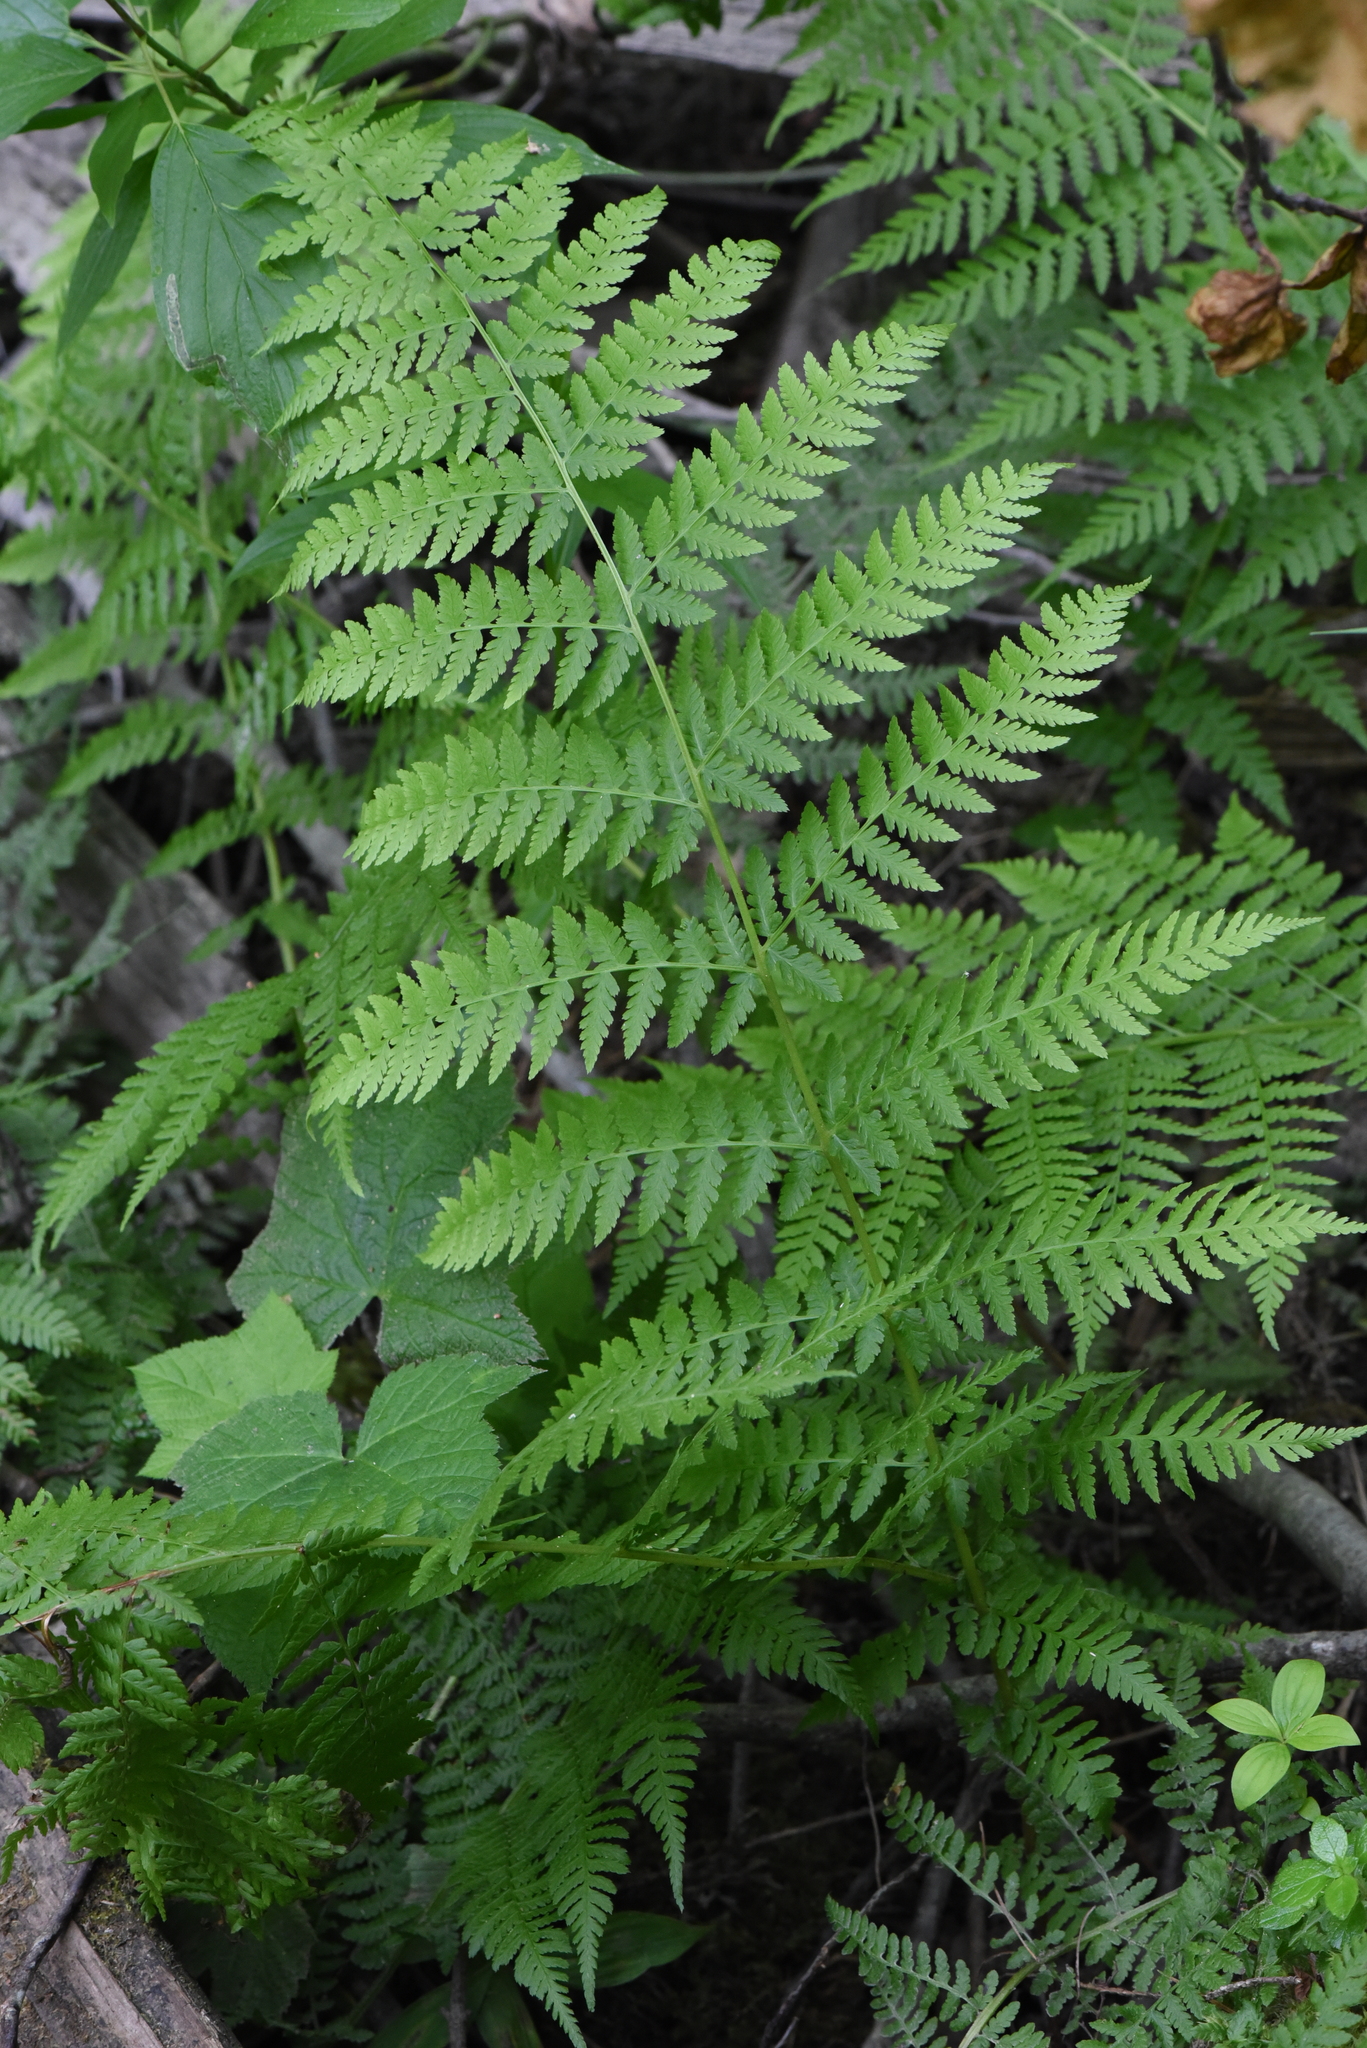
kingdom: Plantae
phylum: Tracheophyta
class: Polypodiopsida
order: Polypodiales
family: Athyriaceae
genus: Athyrium
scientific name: Athyrium filix-femina
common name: Lady fern
